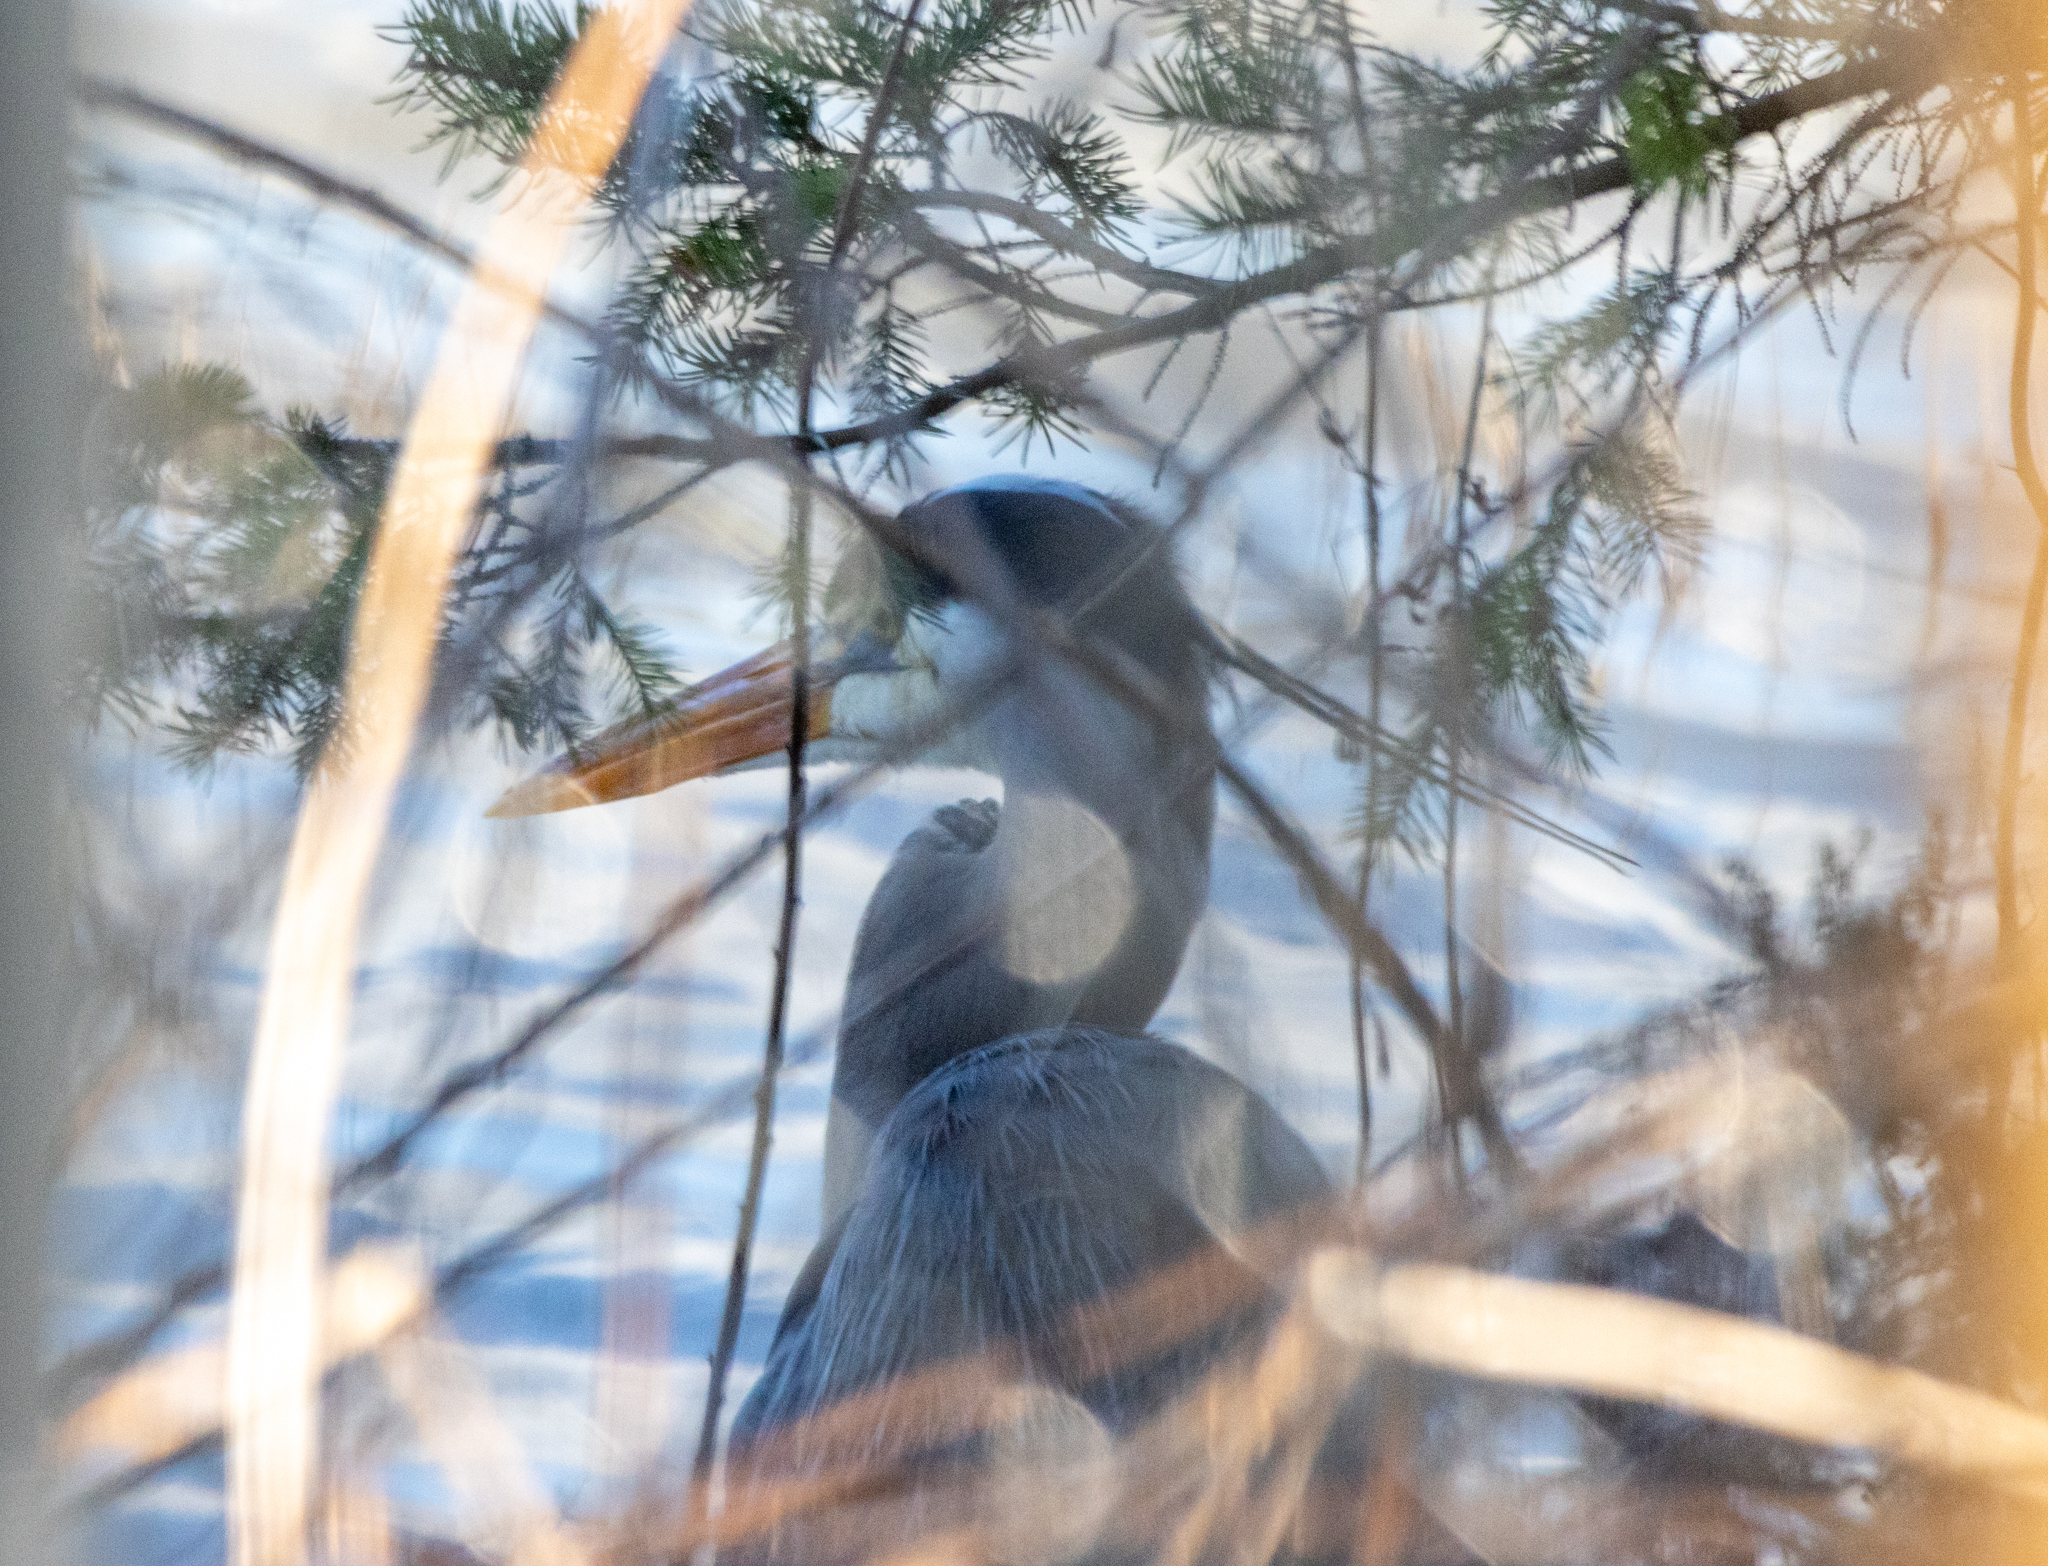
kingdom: Animalia
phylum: Chordata
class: Aves
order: Pelecaniformes
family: Ardeidae
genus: Ardea
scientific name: Ardea herodias
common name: Great blue heron
